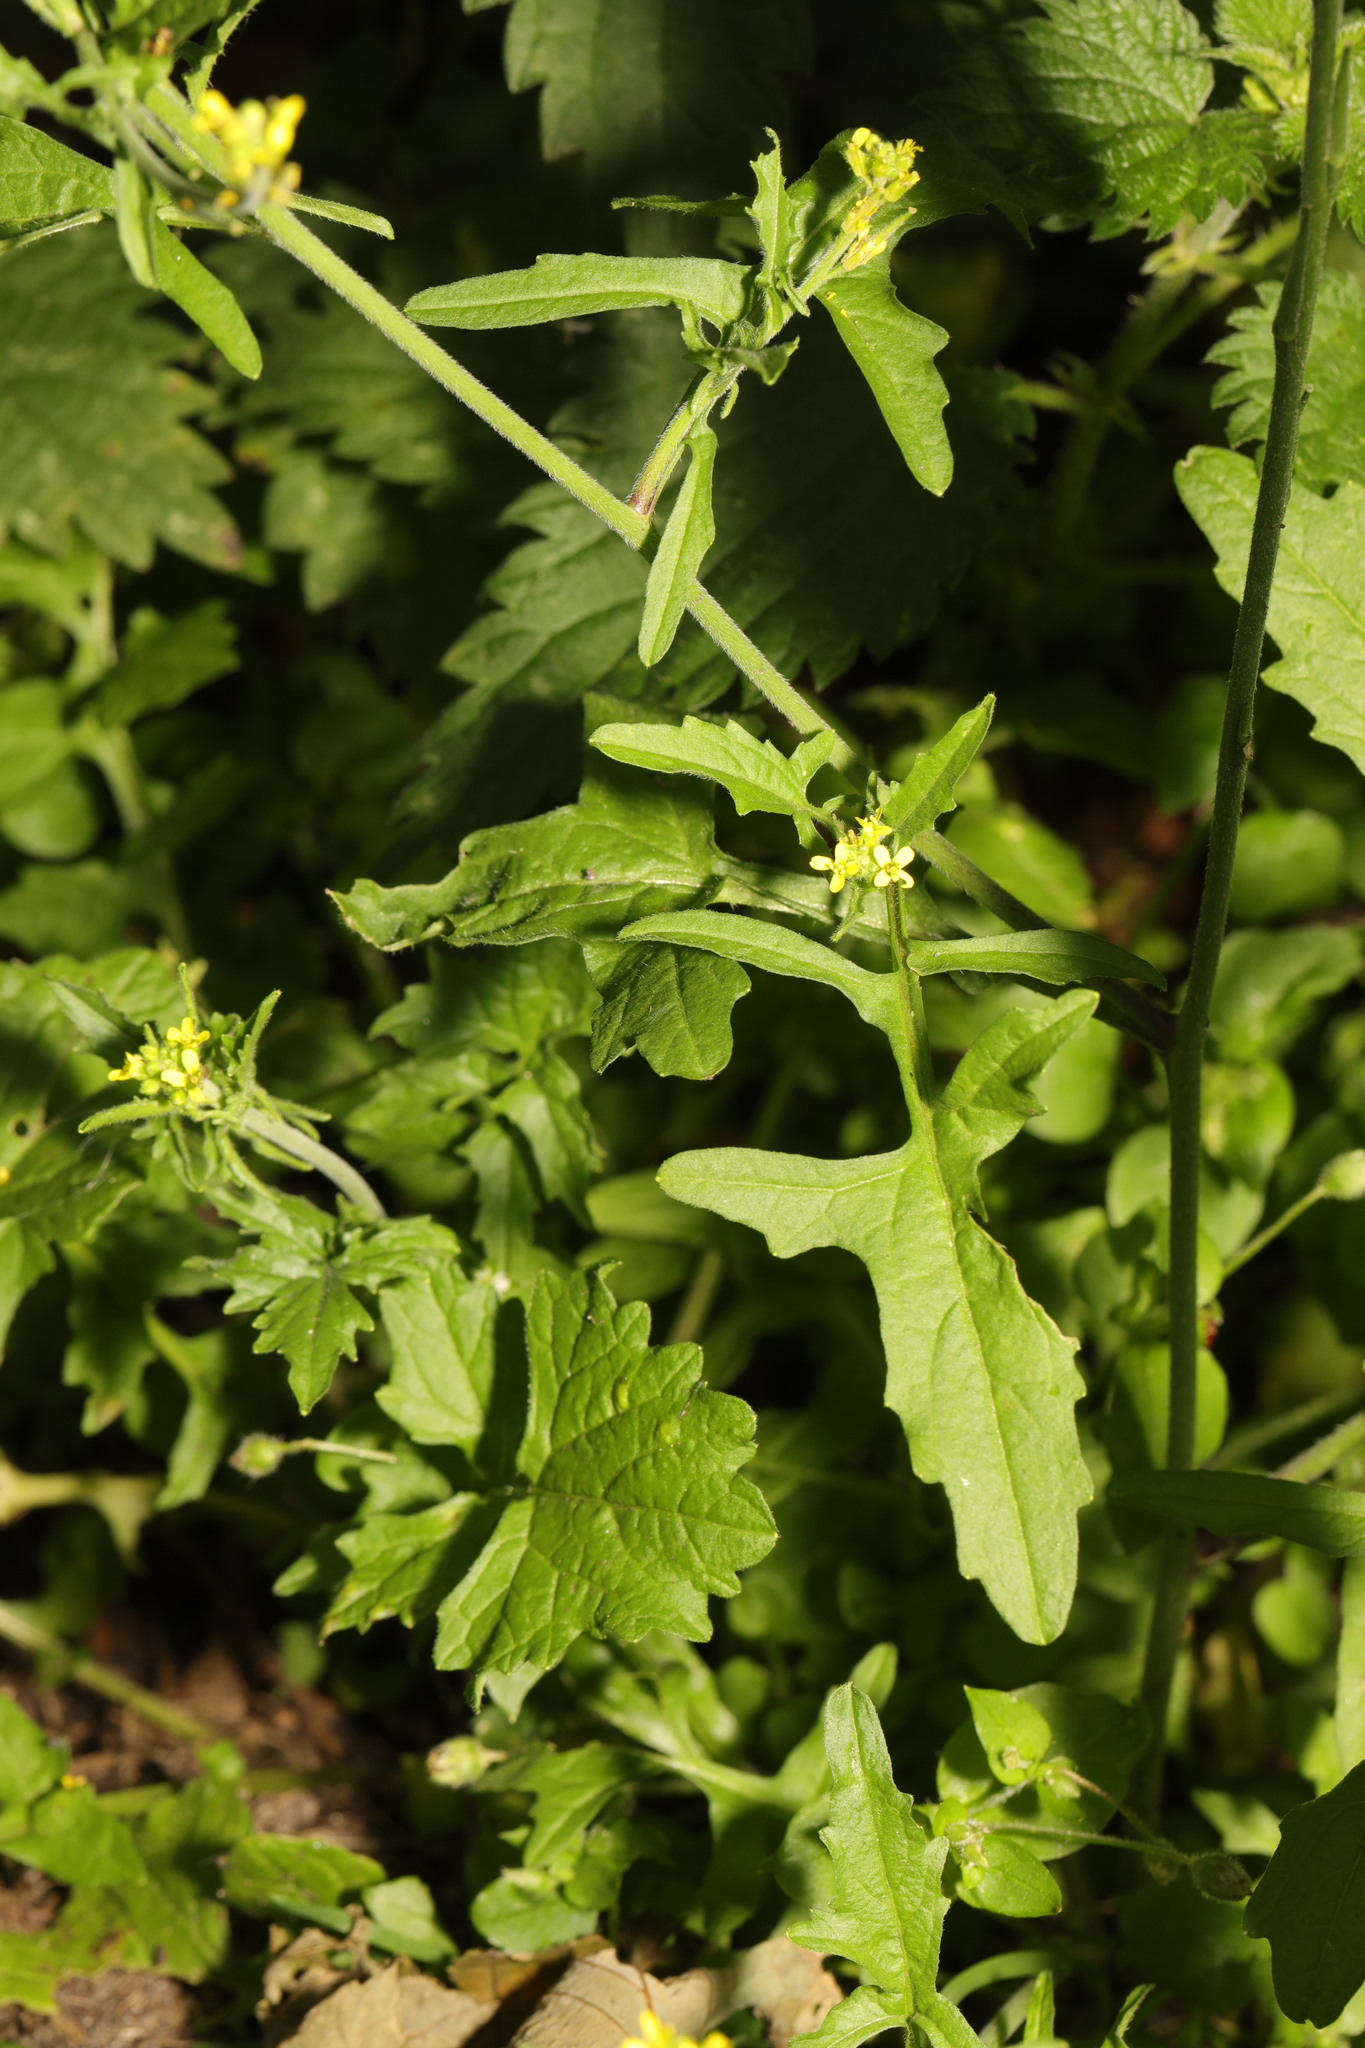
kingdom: Plantae
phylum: Tracheophyta
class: Magnoliopsida
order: Brassicales
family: Brassicaceae
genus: Sisymbrium
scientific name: Sisymbrium officinale
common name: Hedge mustard
